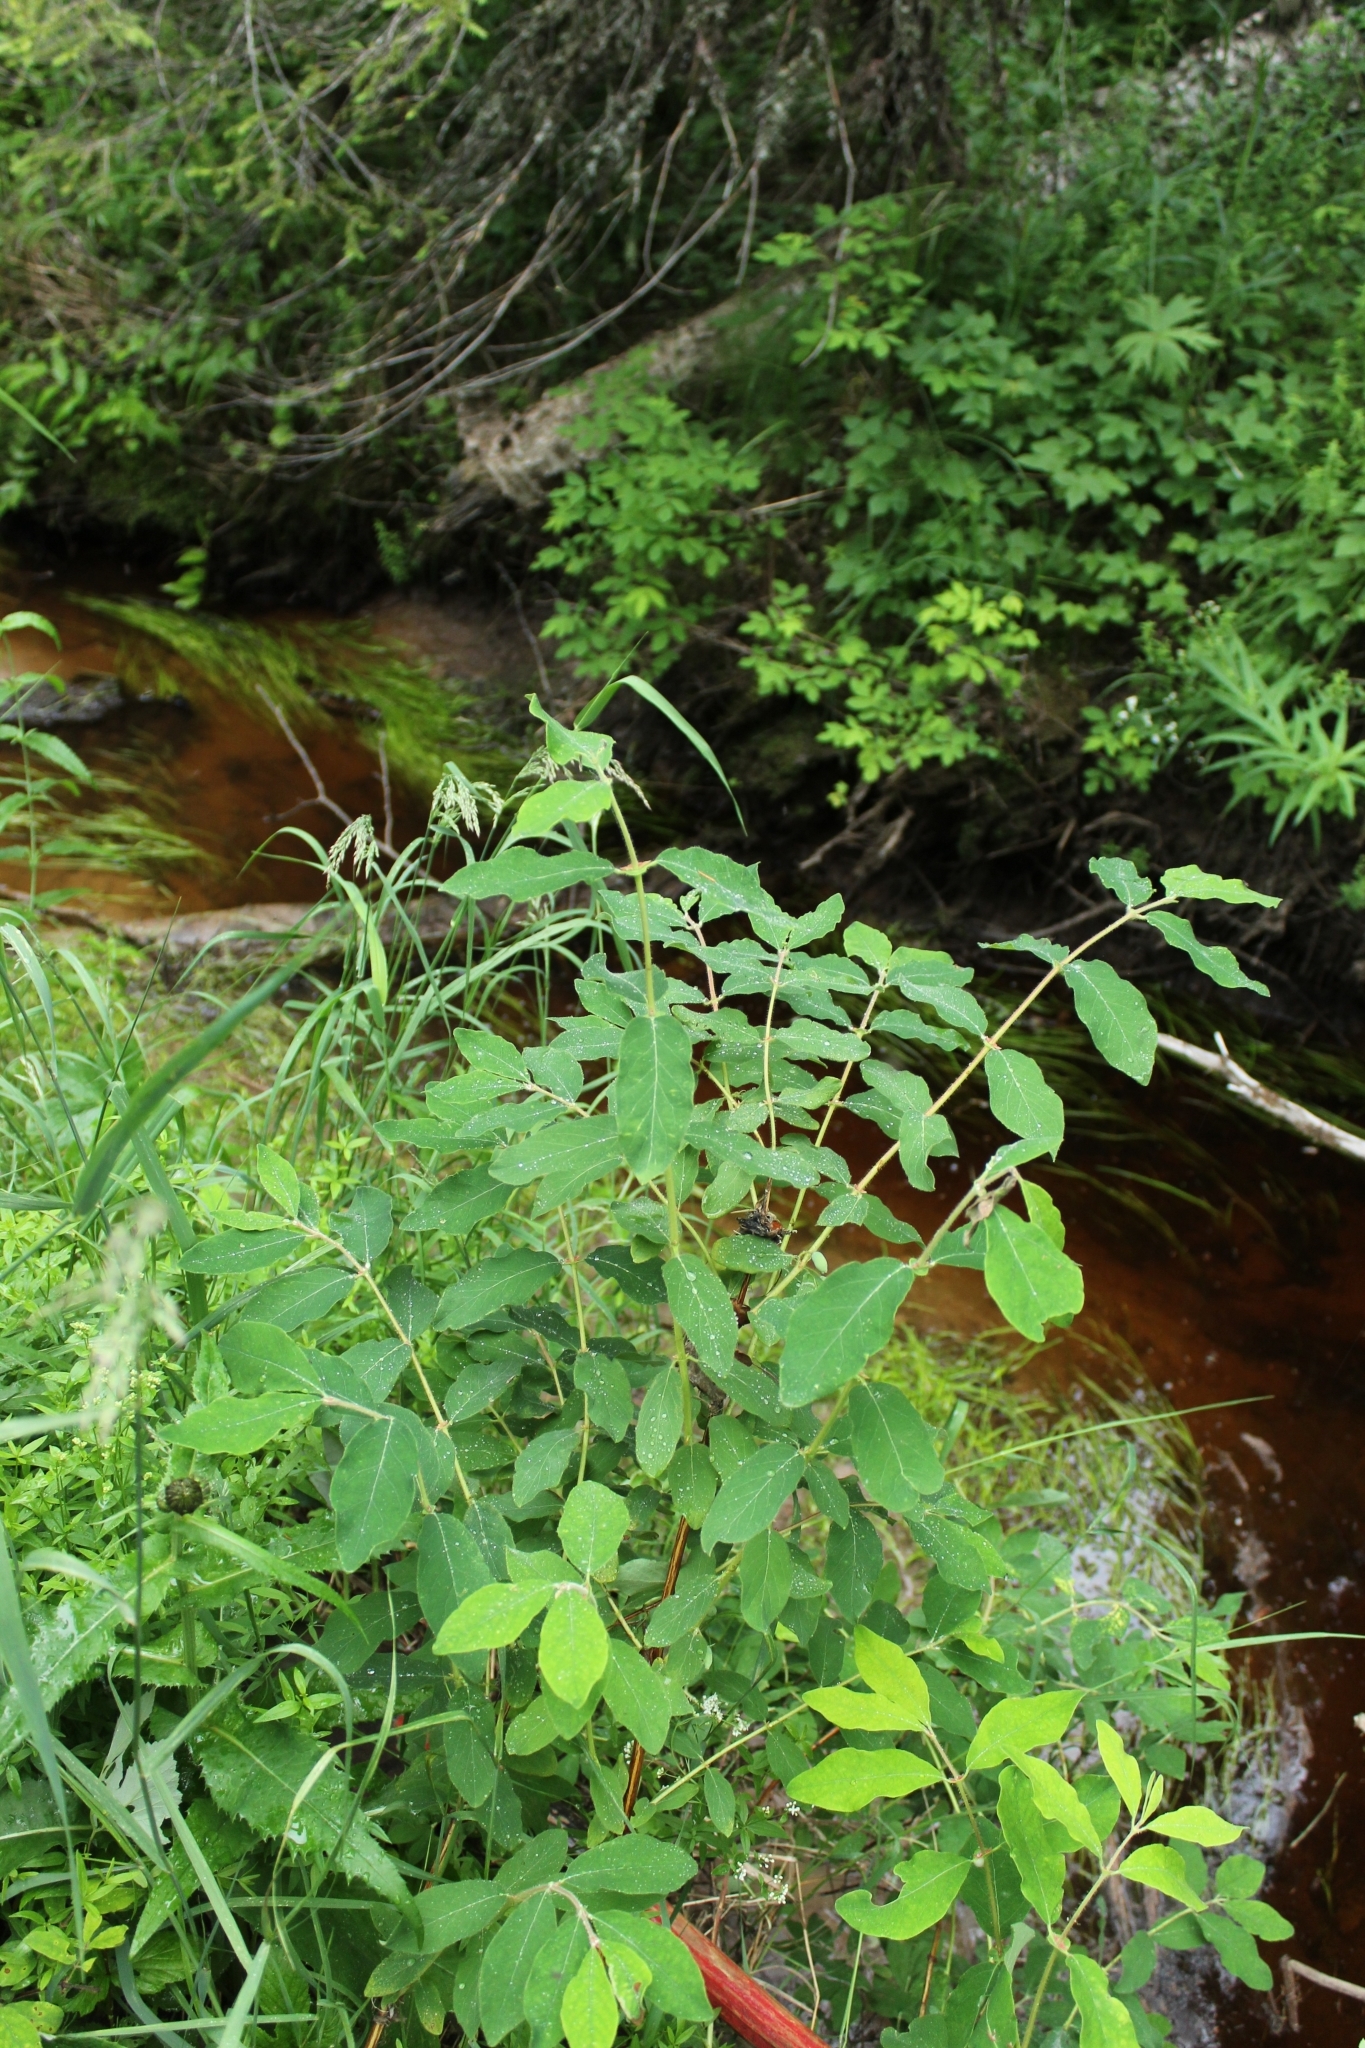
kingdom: Plantae
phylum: Tracheophyta
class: Magnoliopsida
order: Dipsacales
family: Caprifoliaceae
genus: Lonicera
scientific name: Lonicera caerulea
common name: Blue honeysuckle
